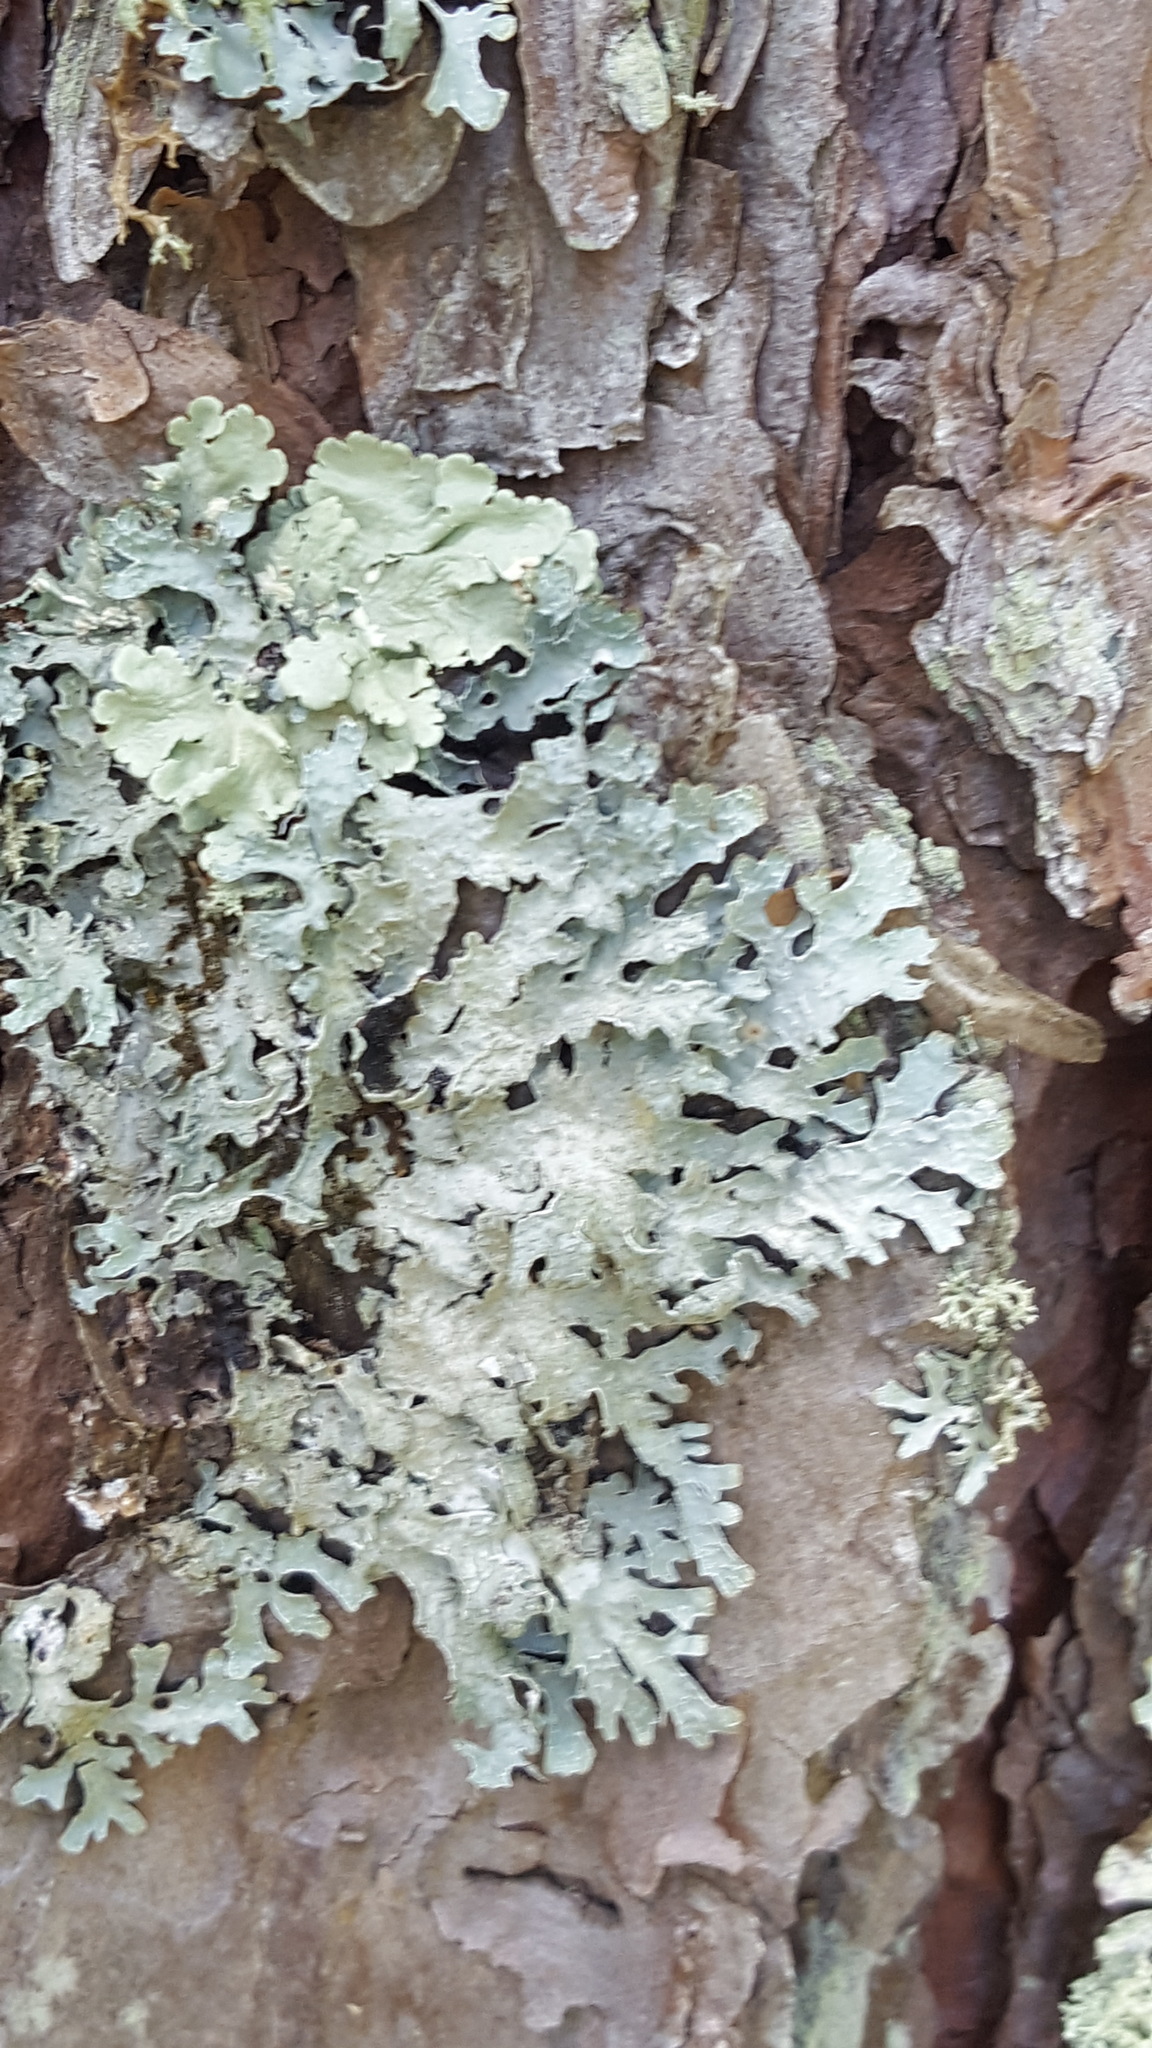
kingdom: Fungi
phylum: Ascomycota
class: Lecanoromycetes
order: Lecanorales
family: Parmeliaceae
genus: Parmelia
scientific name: Parmelia sulcata
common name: Netted shield lichen
